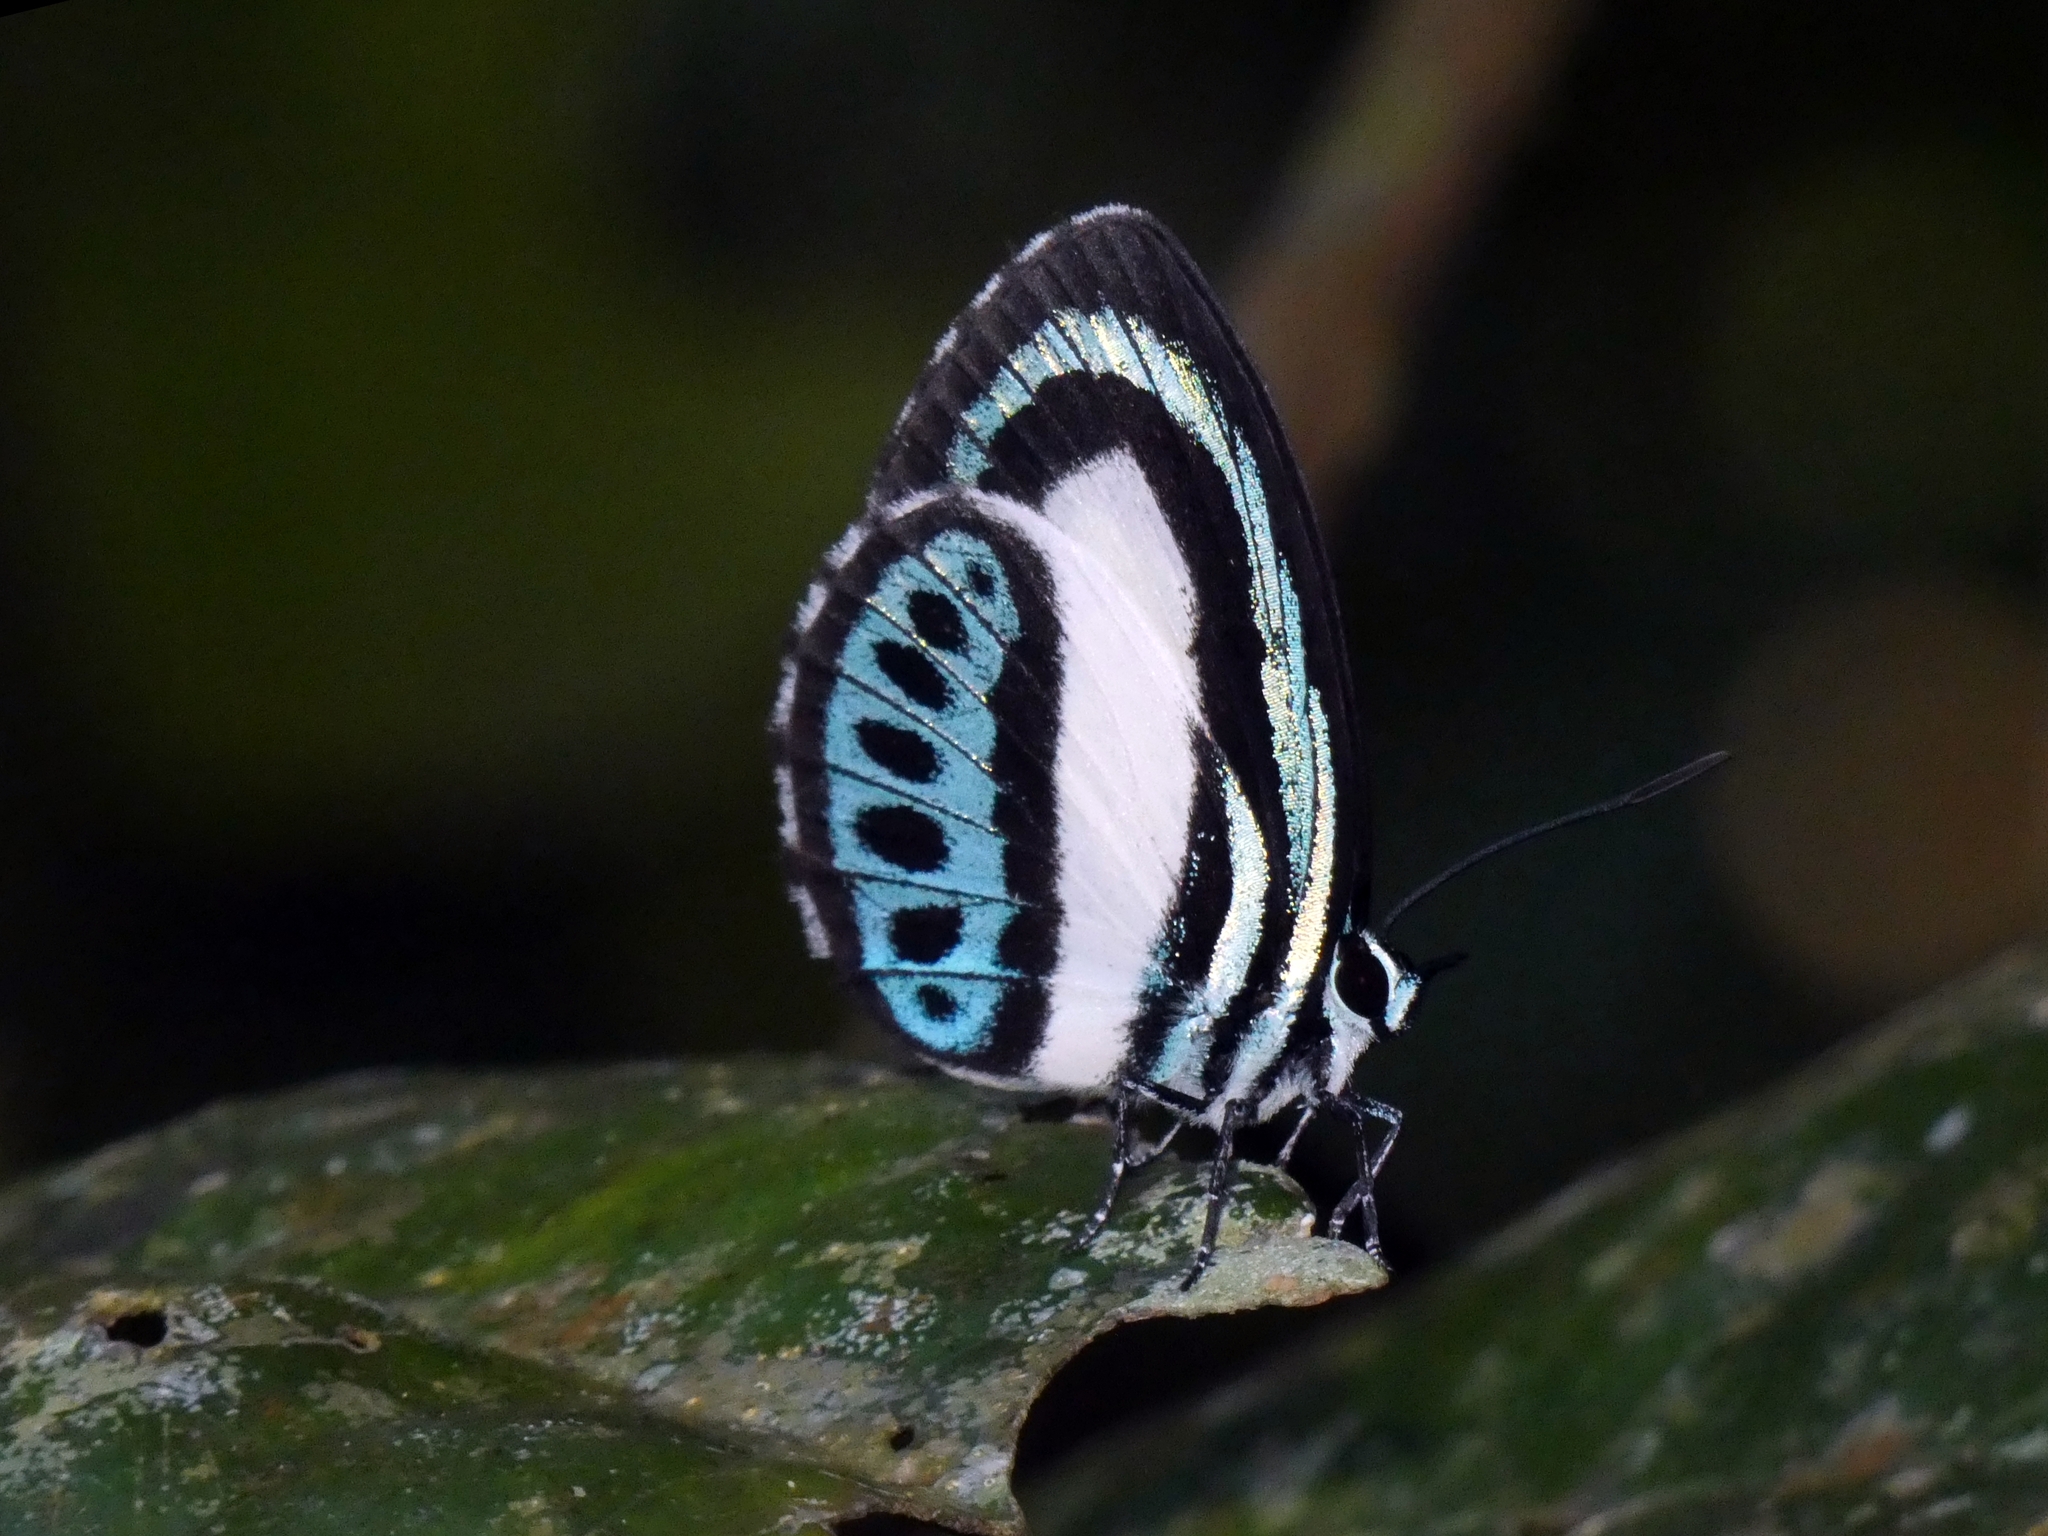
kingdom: Animalia
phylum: Arthropoda
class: Insecta
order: Lepidoptera
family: Lycaenidae
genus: Danis
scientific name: Danis danis
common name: Large green-banded blue
